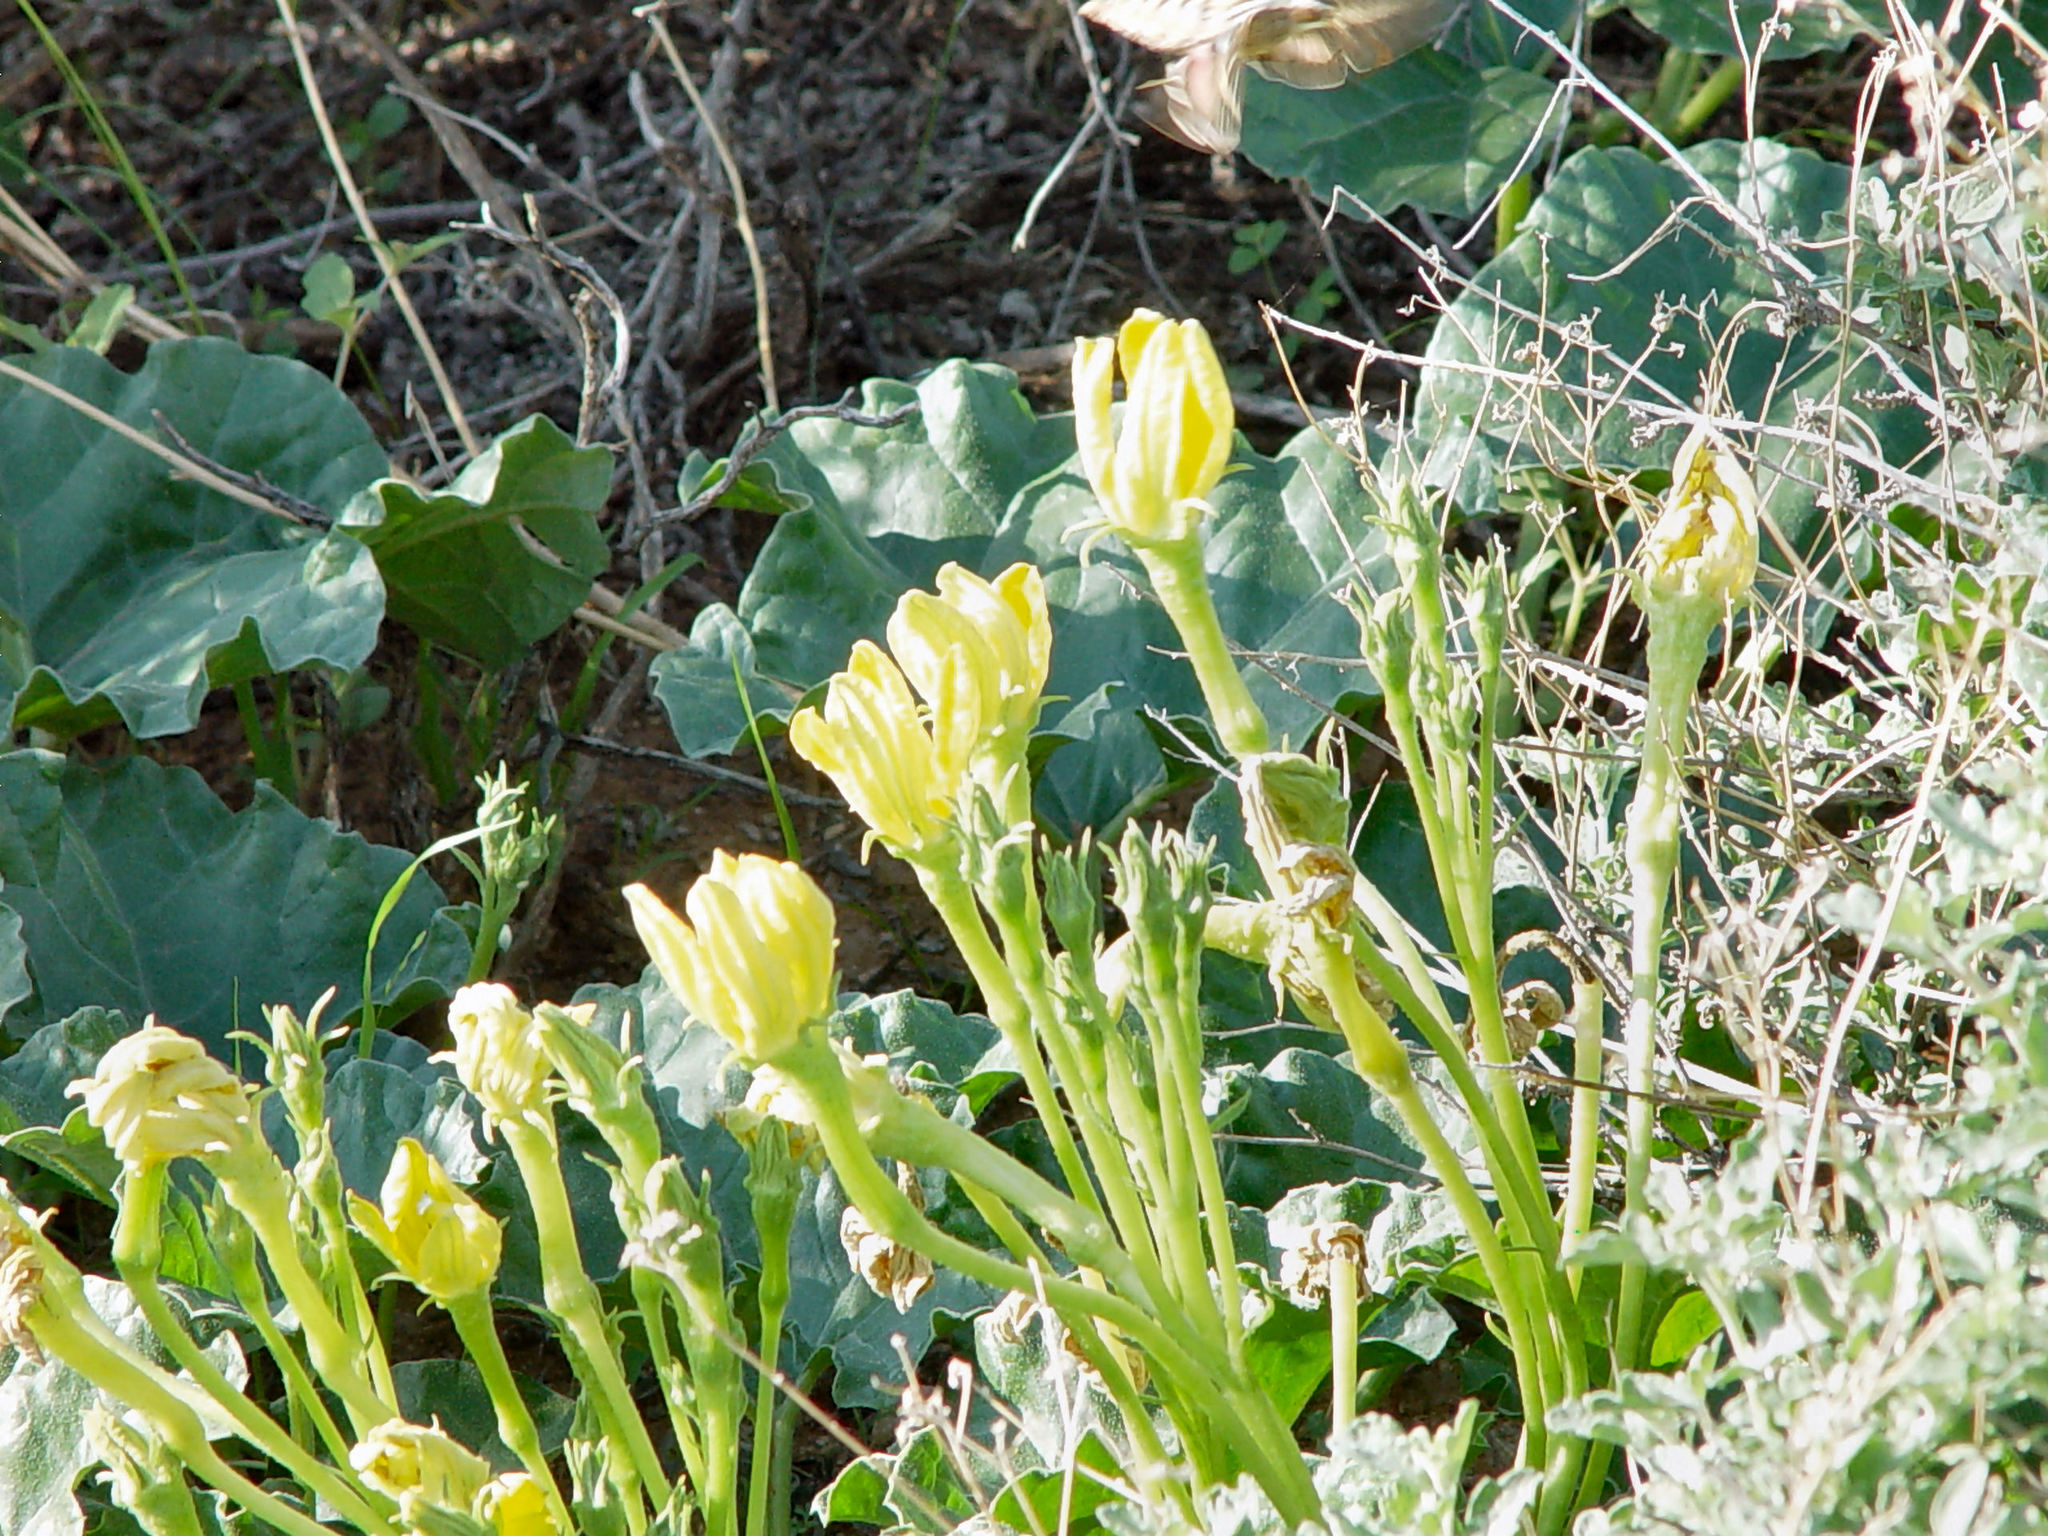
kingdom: Plantae
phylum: Tracheophyta
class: Magnoliopsida
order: Cucurbitales
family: Cucurbitaceae
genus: Apodanthera
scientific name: Apodanthera undulata
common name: Melon-loco
